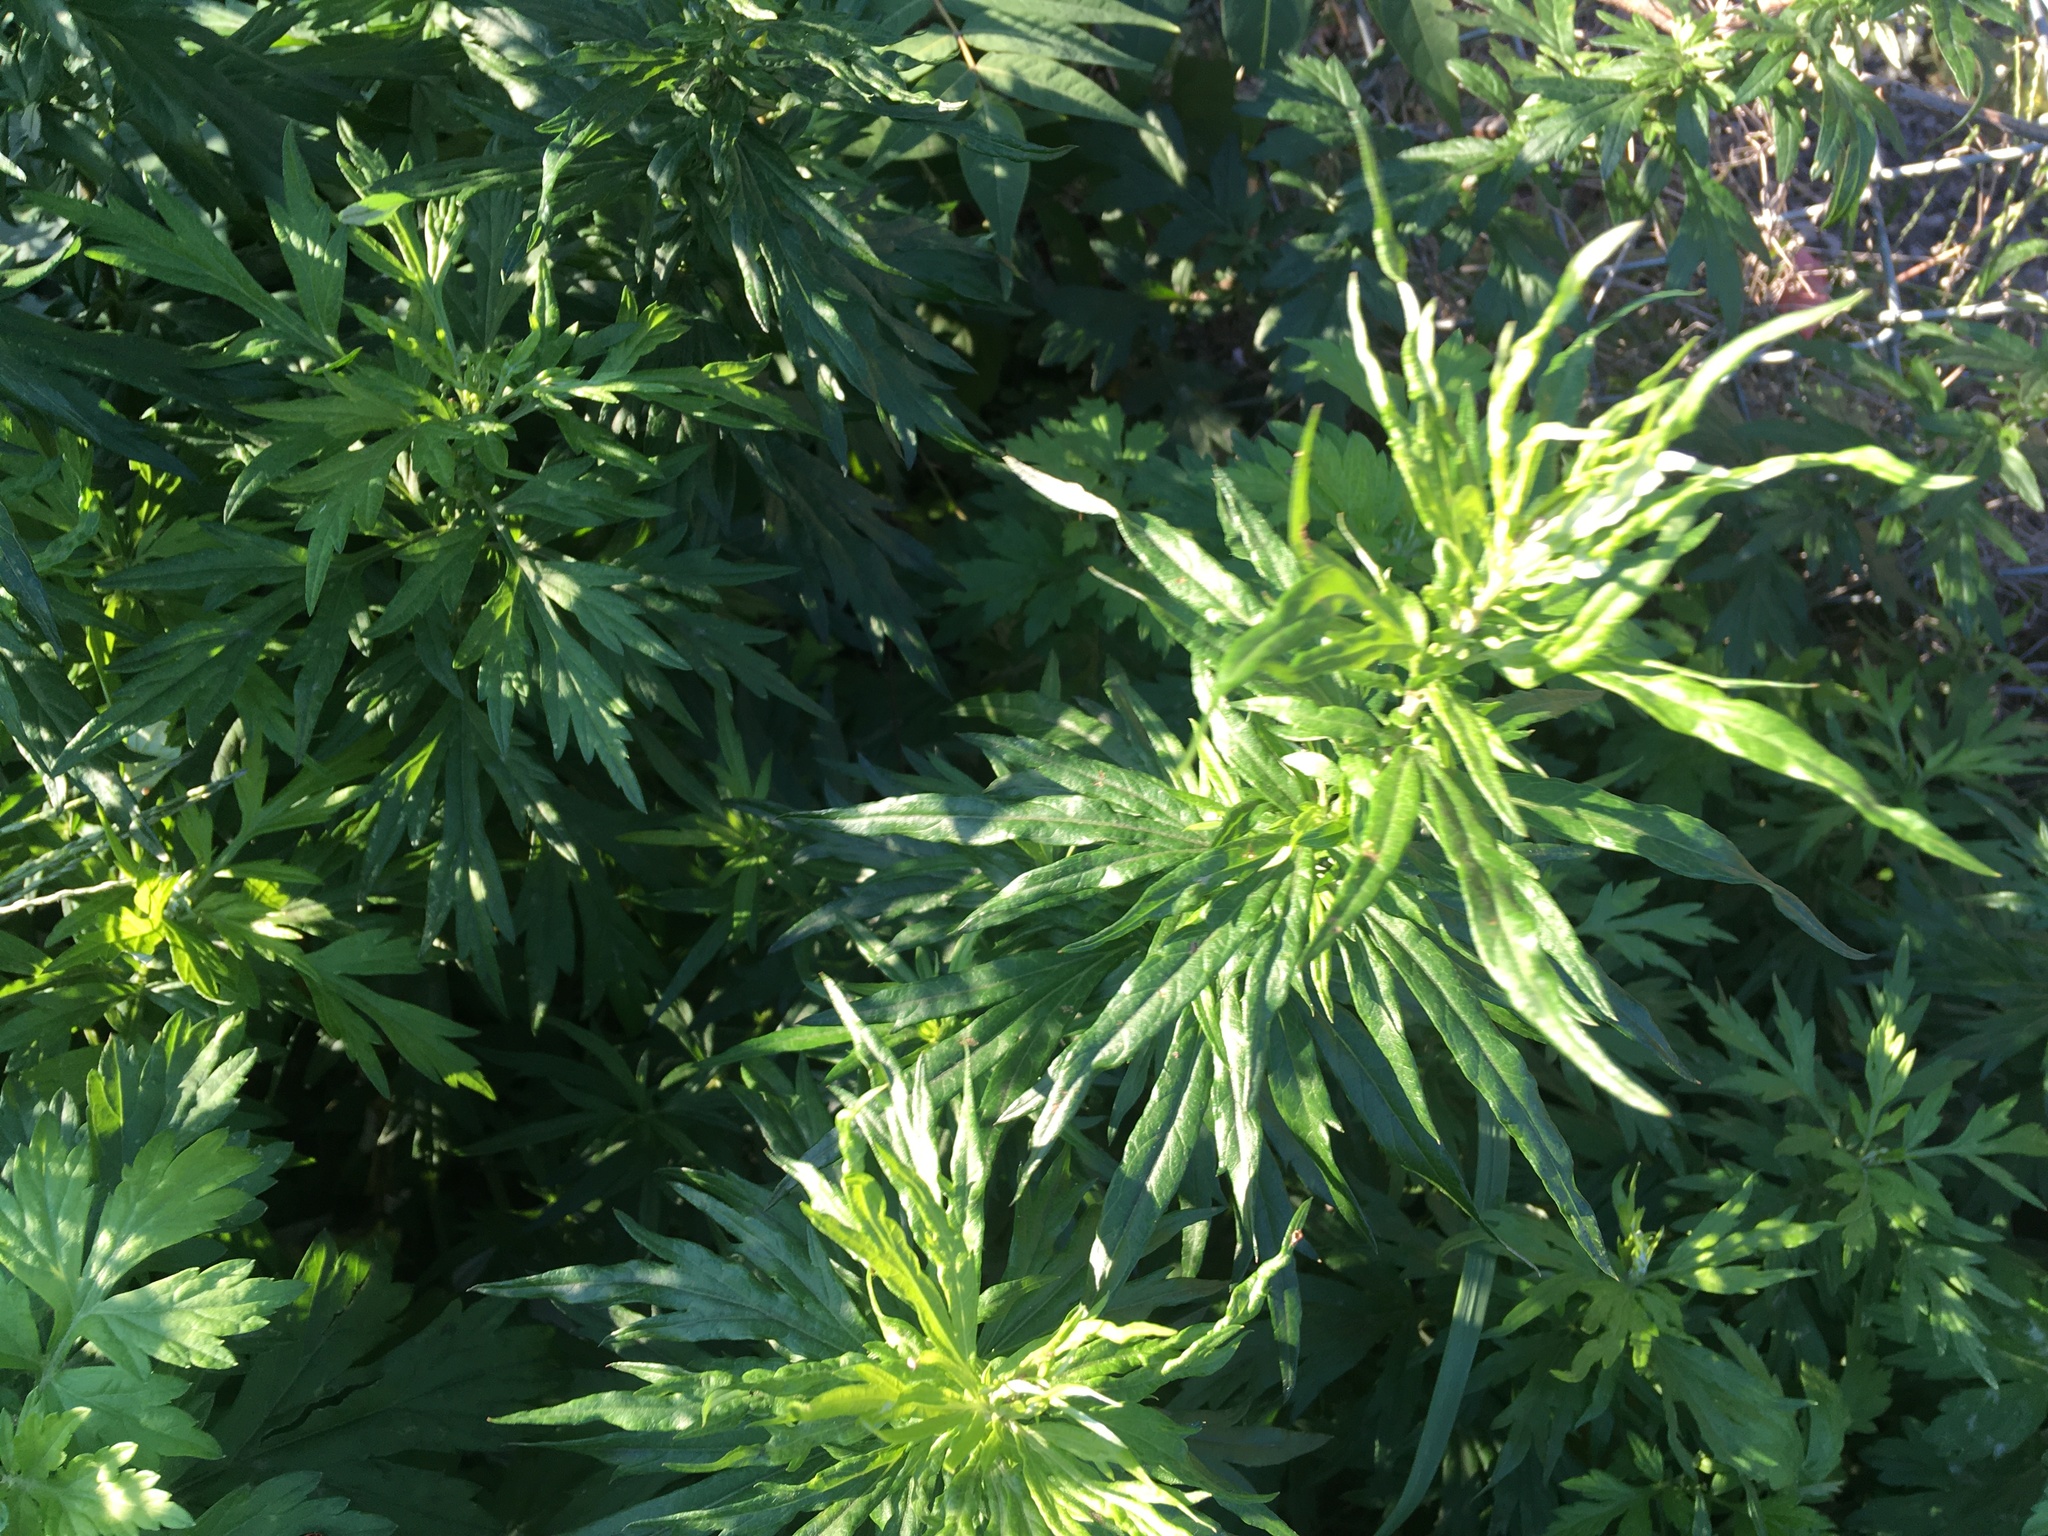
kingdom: Plantae
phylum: Tracheophyta
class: Magnoliopsida
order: Asterales
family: Asteraceae
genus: Artemisia
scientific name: Artemisia vulgaris
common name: Mugwort
